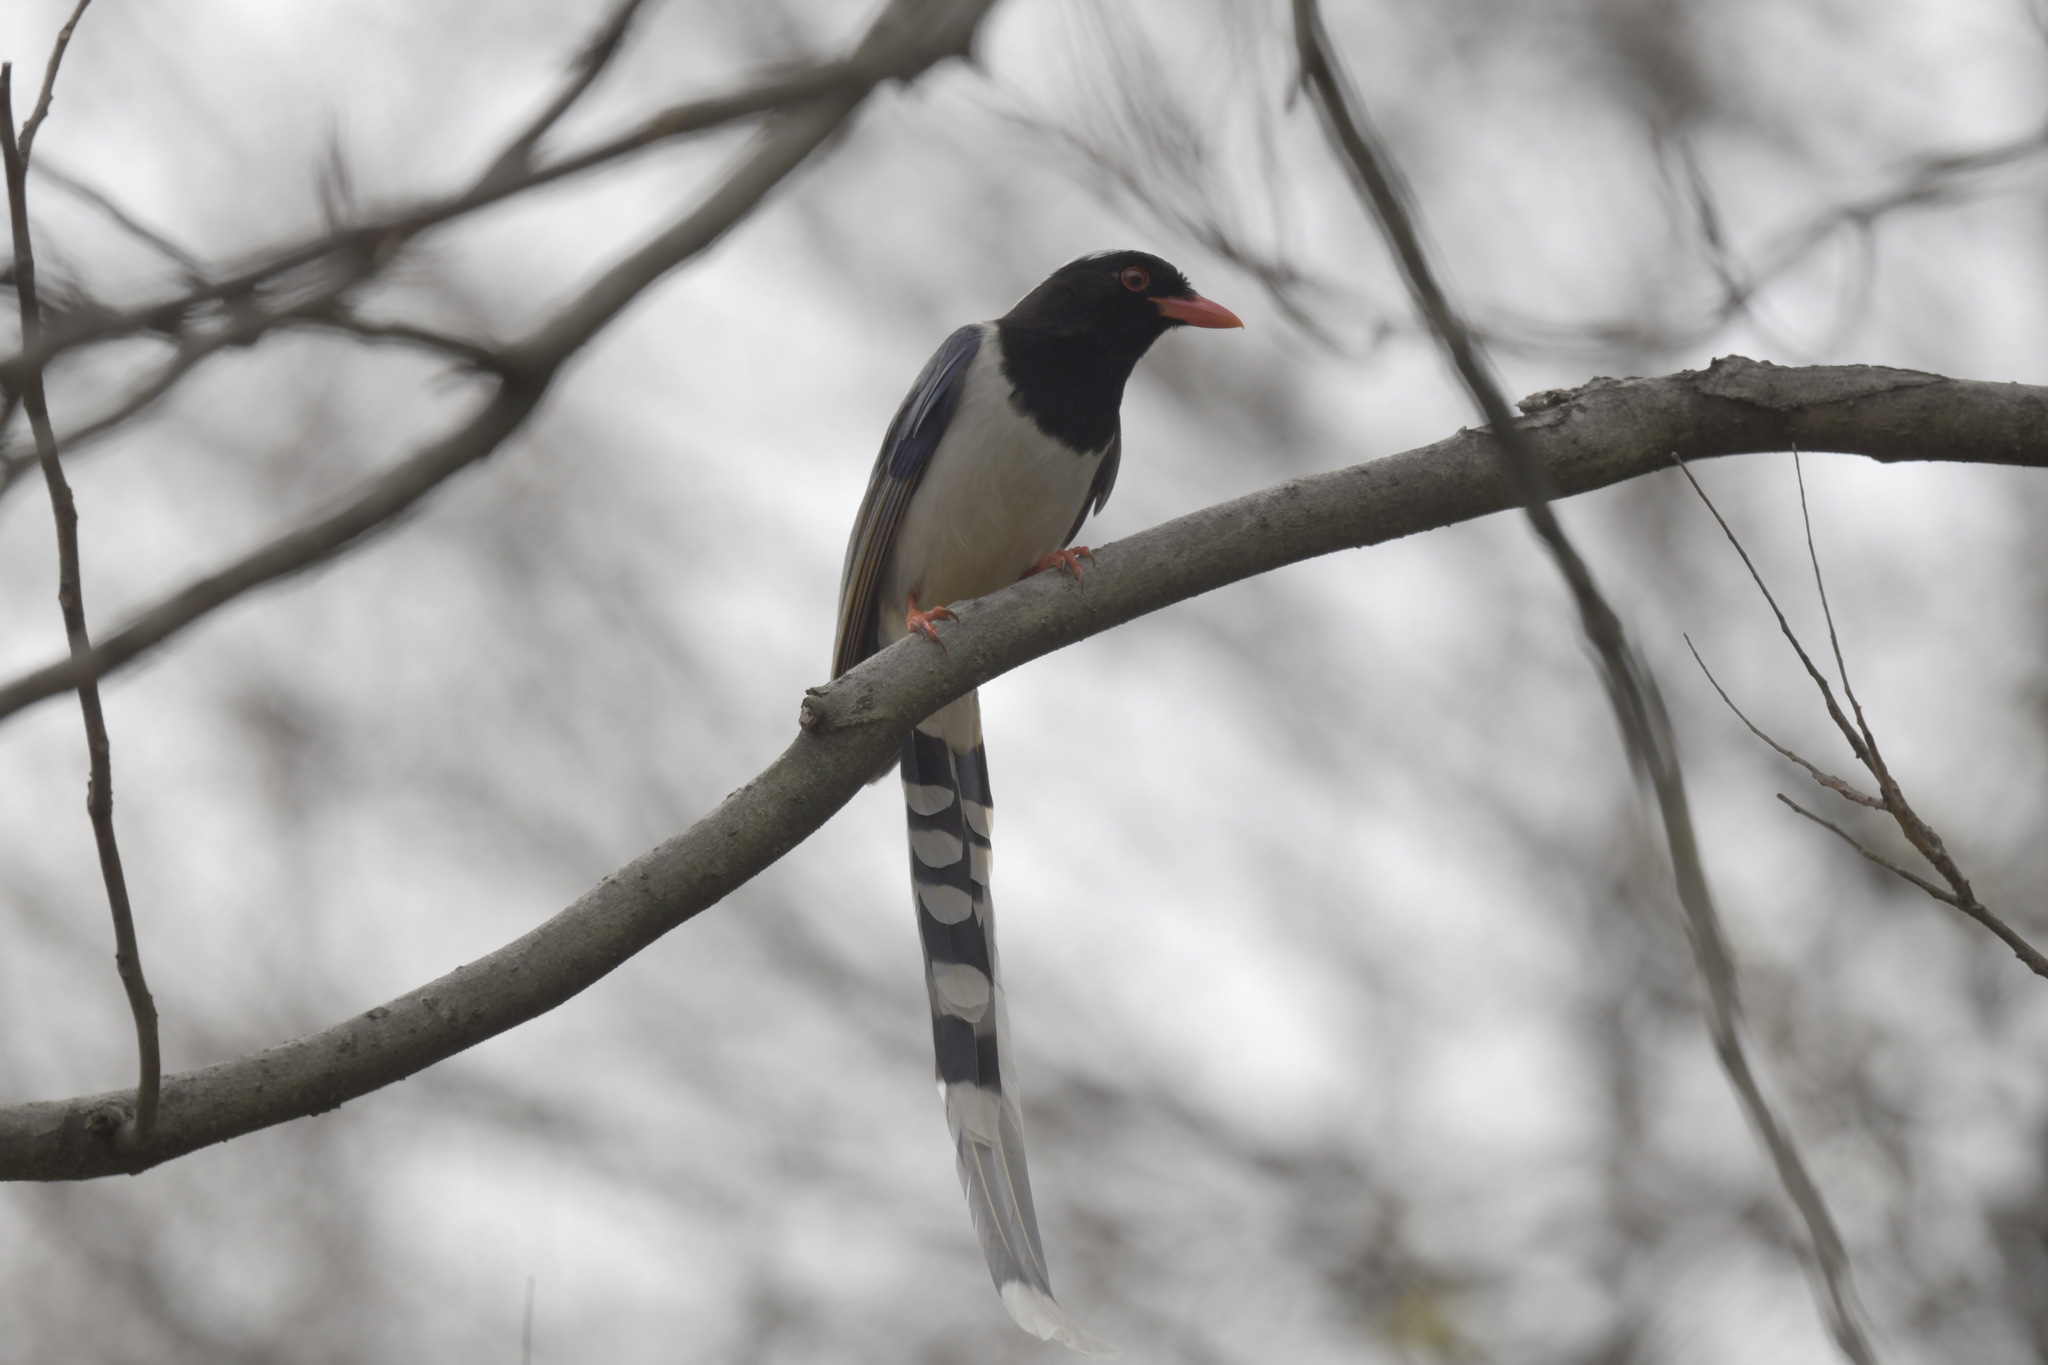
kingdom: Animalia
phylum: Chordata
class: Aves
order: Passeriformes
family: Corvidae
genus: Urocissa
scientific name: Urocissa erythroryncha
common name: Red-billed blue magpie
